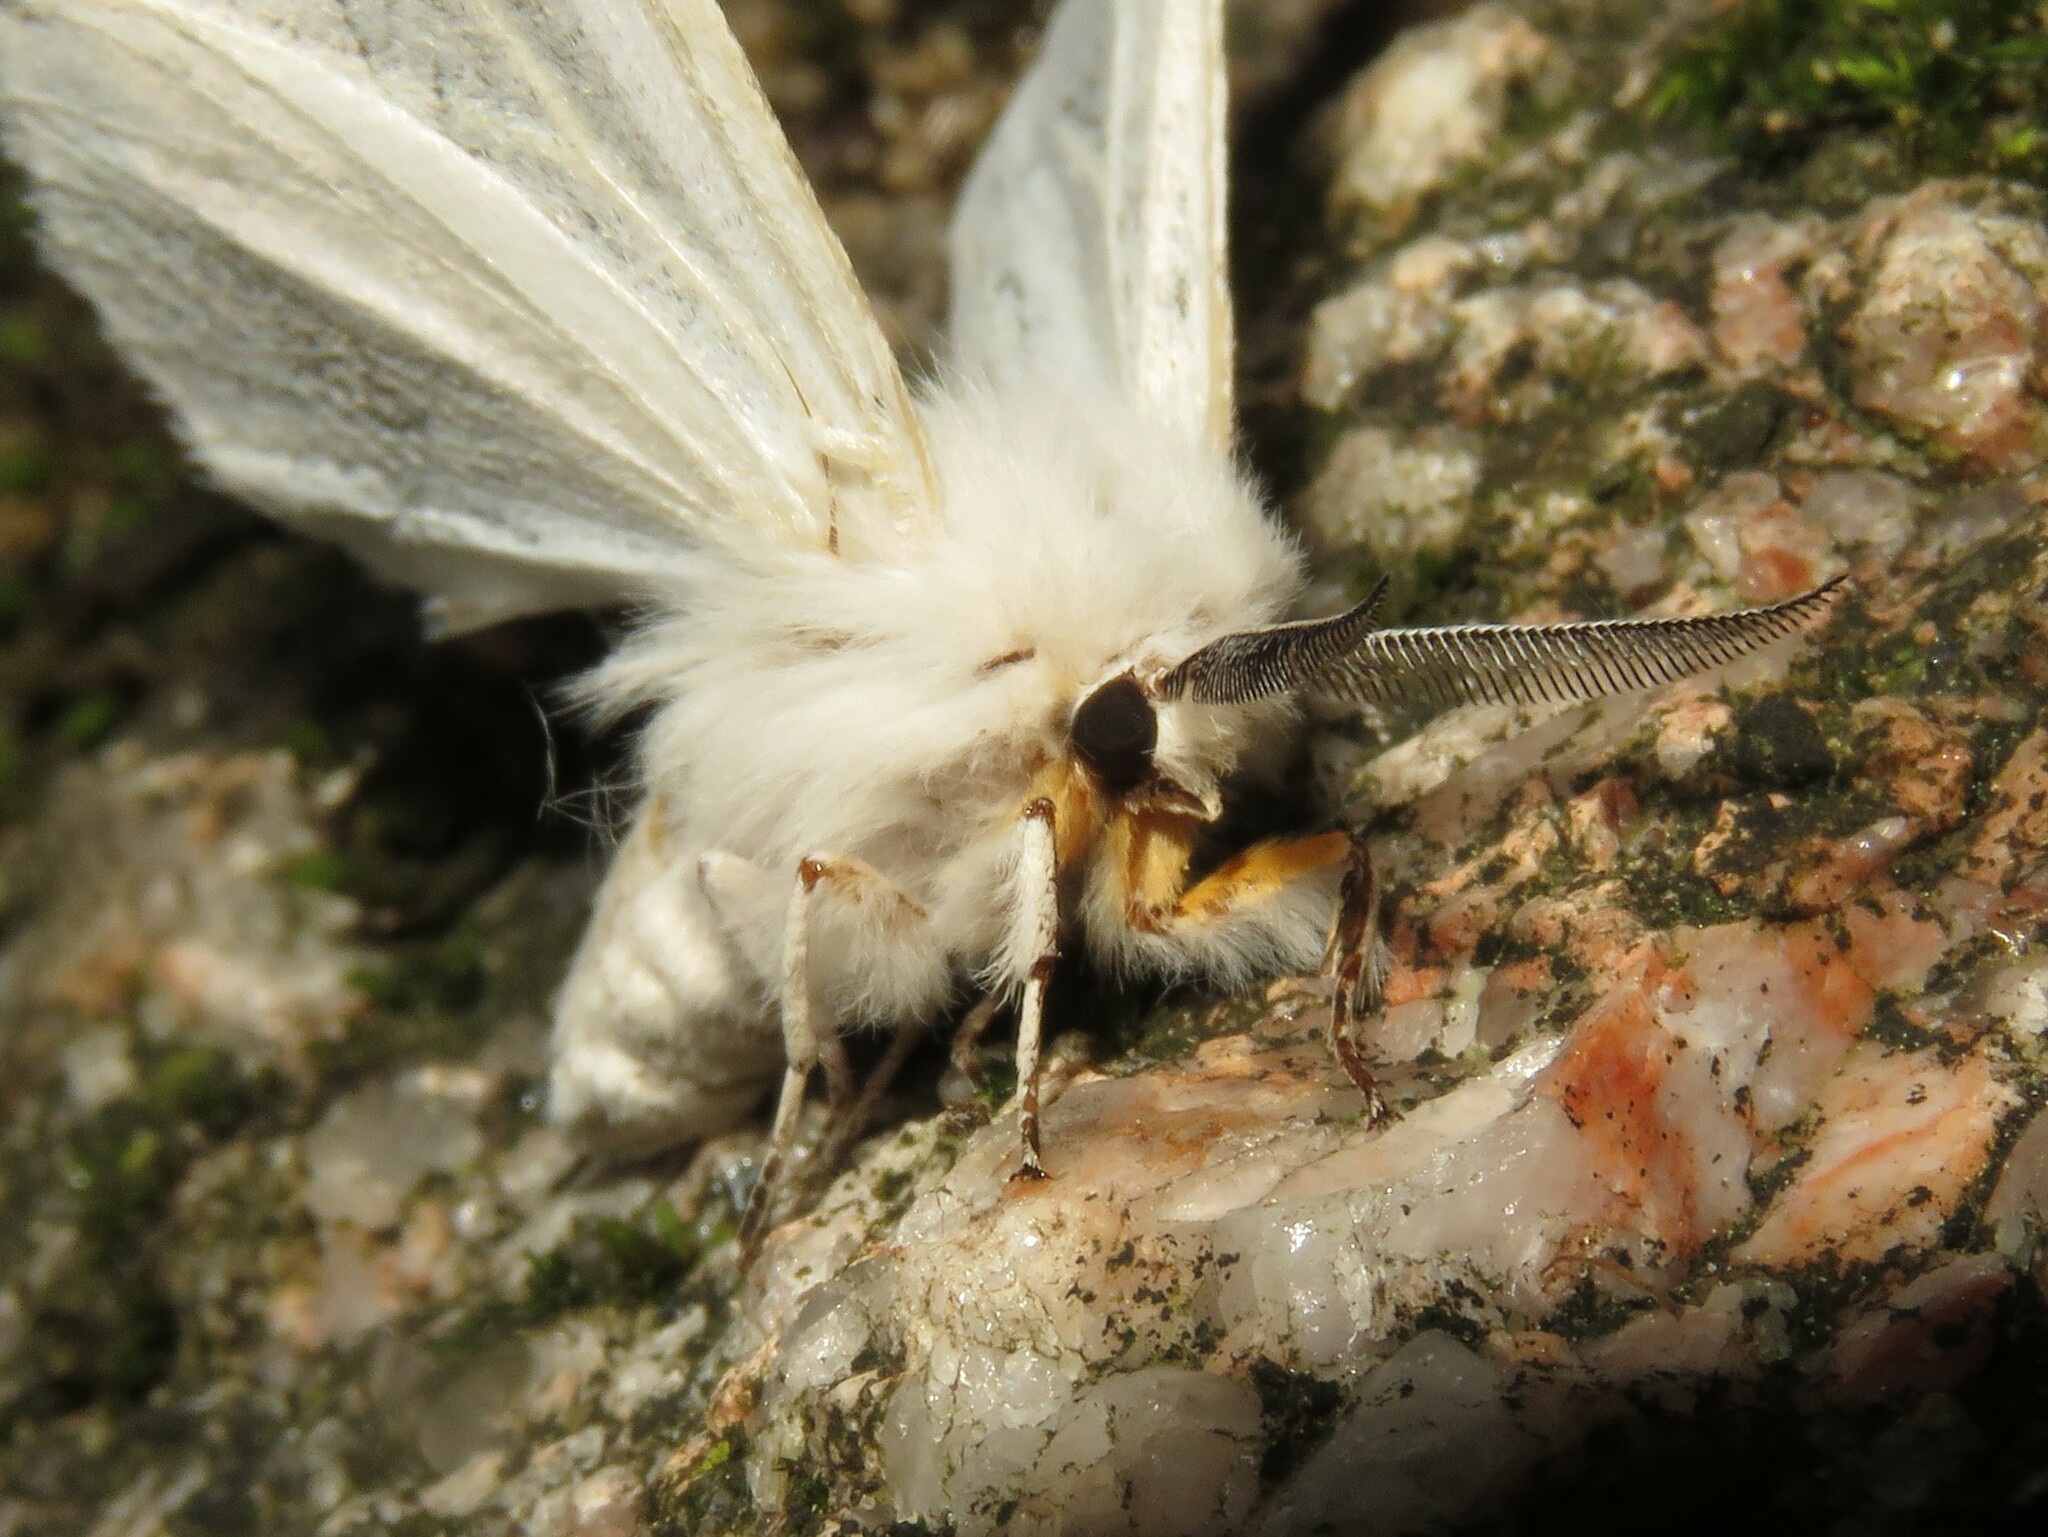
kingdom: Animalia
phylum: Arthropoda
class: Insecta
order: Lepidoptera
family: Erebidae
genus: Spilosoma
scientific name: Spilosoma congrua
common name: Agreeable tiger moth
